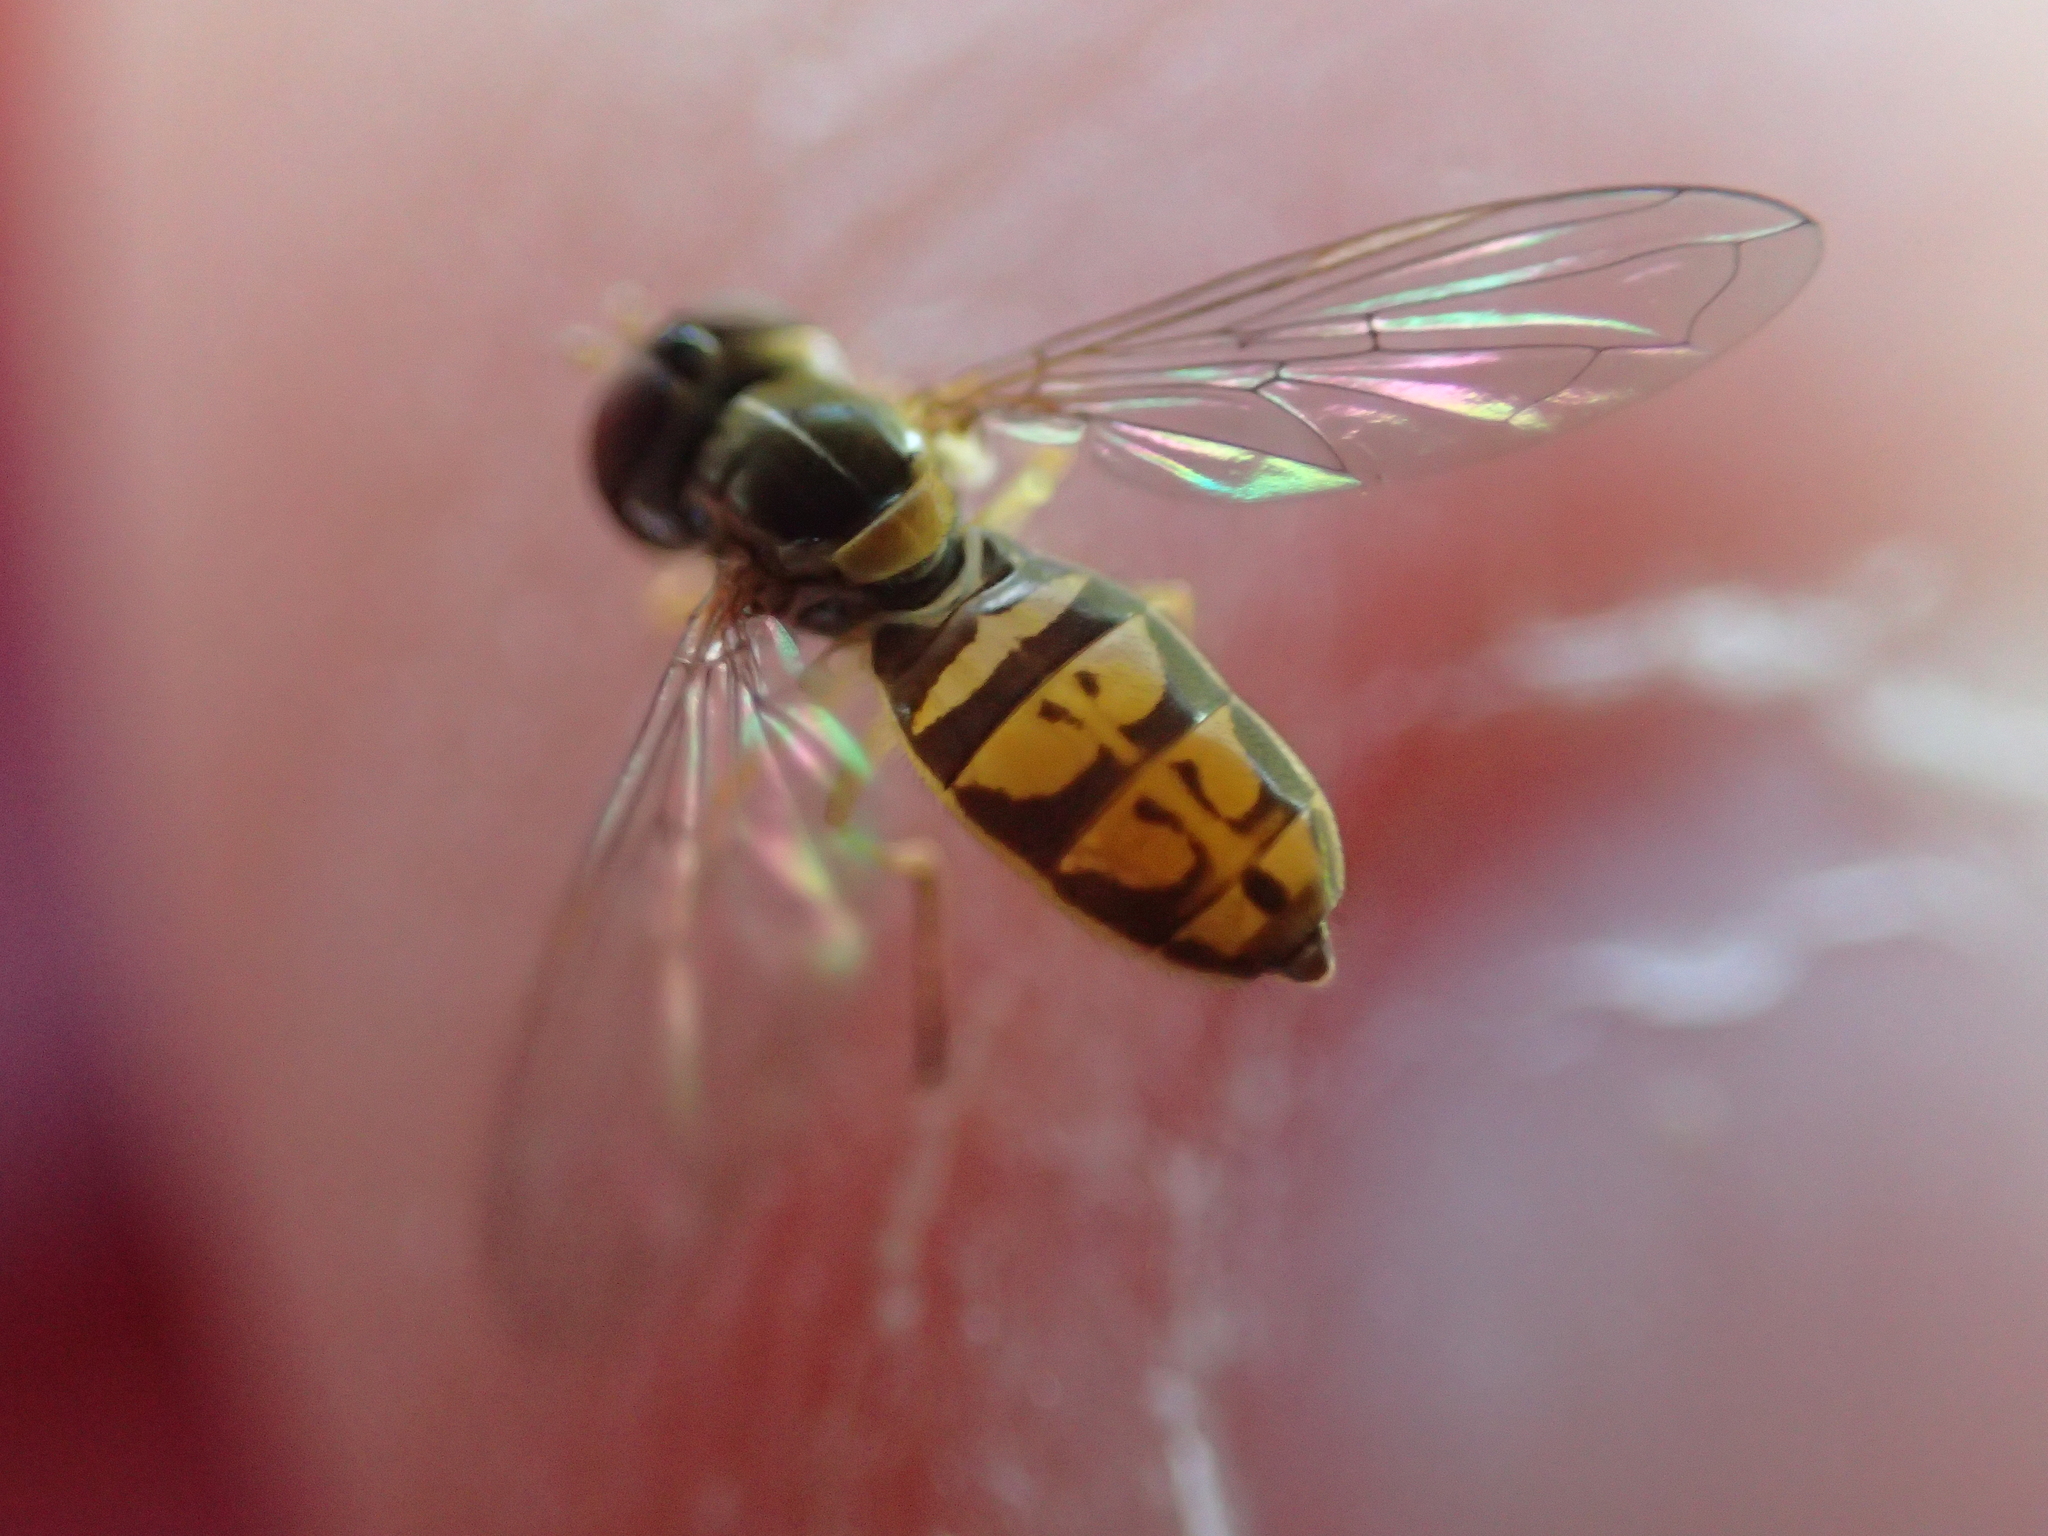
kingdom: Animalia
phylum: Arthropoda
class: Insecta
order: Diptera
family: Syrphidae
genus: Toxomerus
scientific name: Toxomerus marginatus
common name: Syrphid fly
